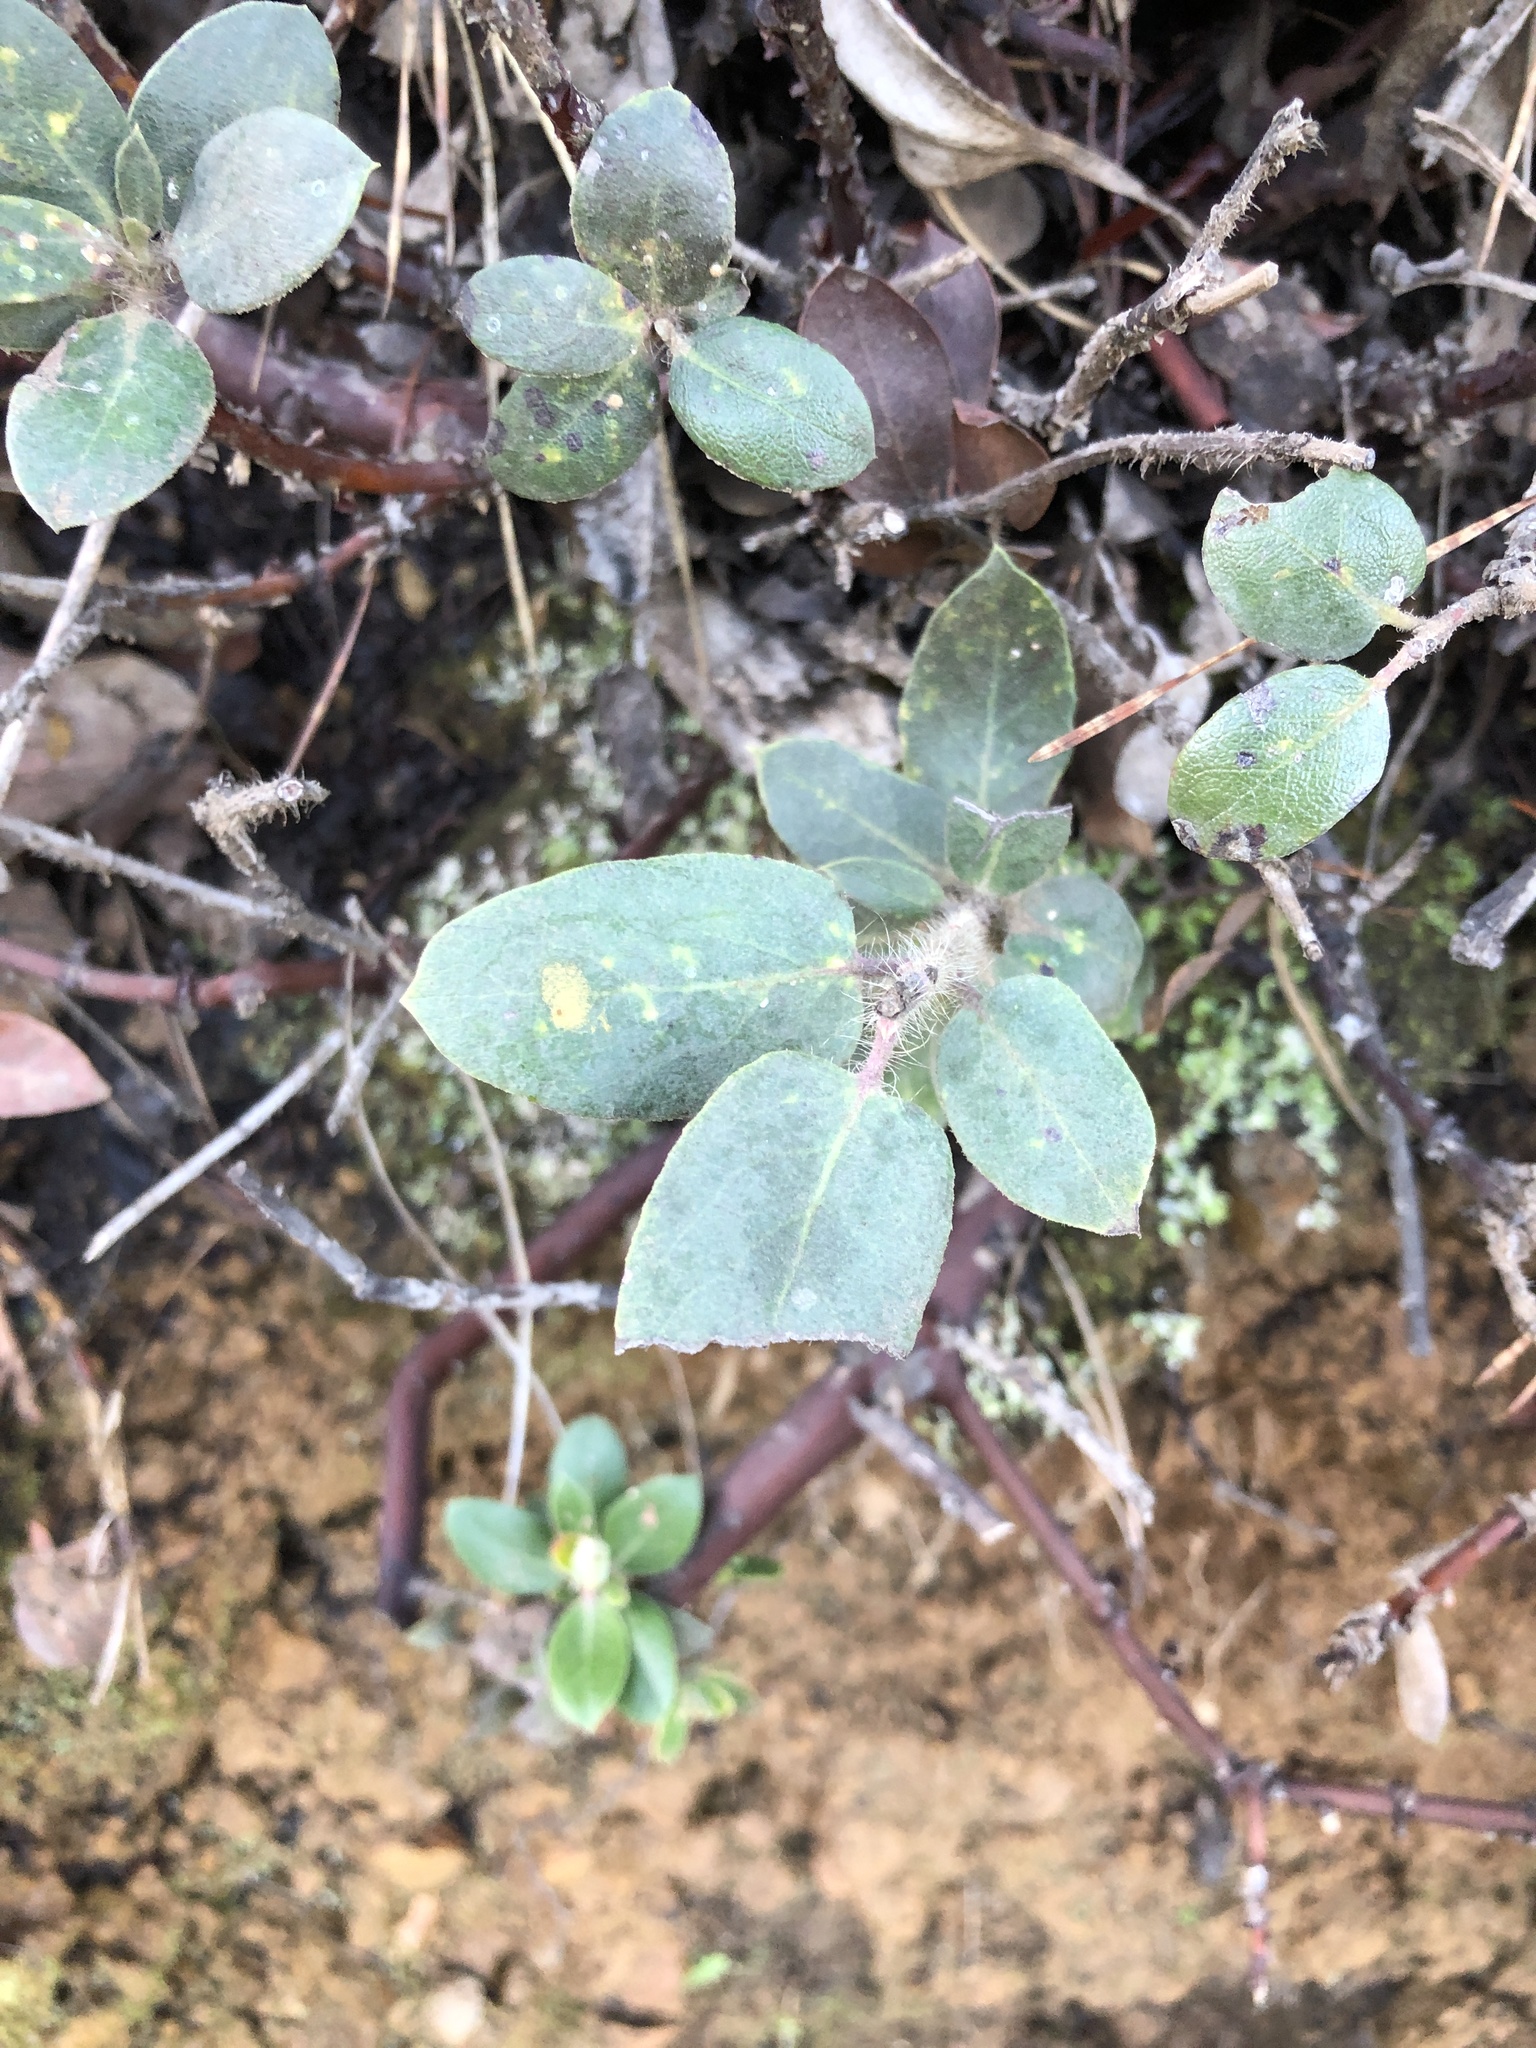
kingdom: Plantae
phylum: Tracheophyta
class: Magnoliopsida
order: Ericales
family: Ericaceae
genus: Arctostaphylos
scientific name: Arctostaphylos crustacea
